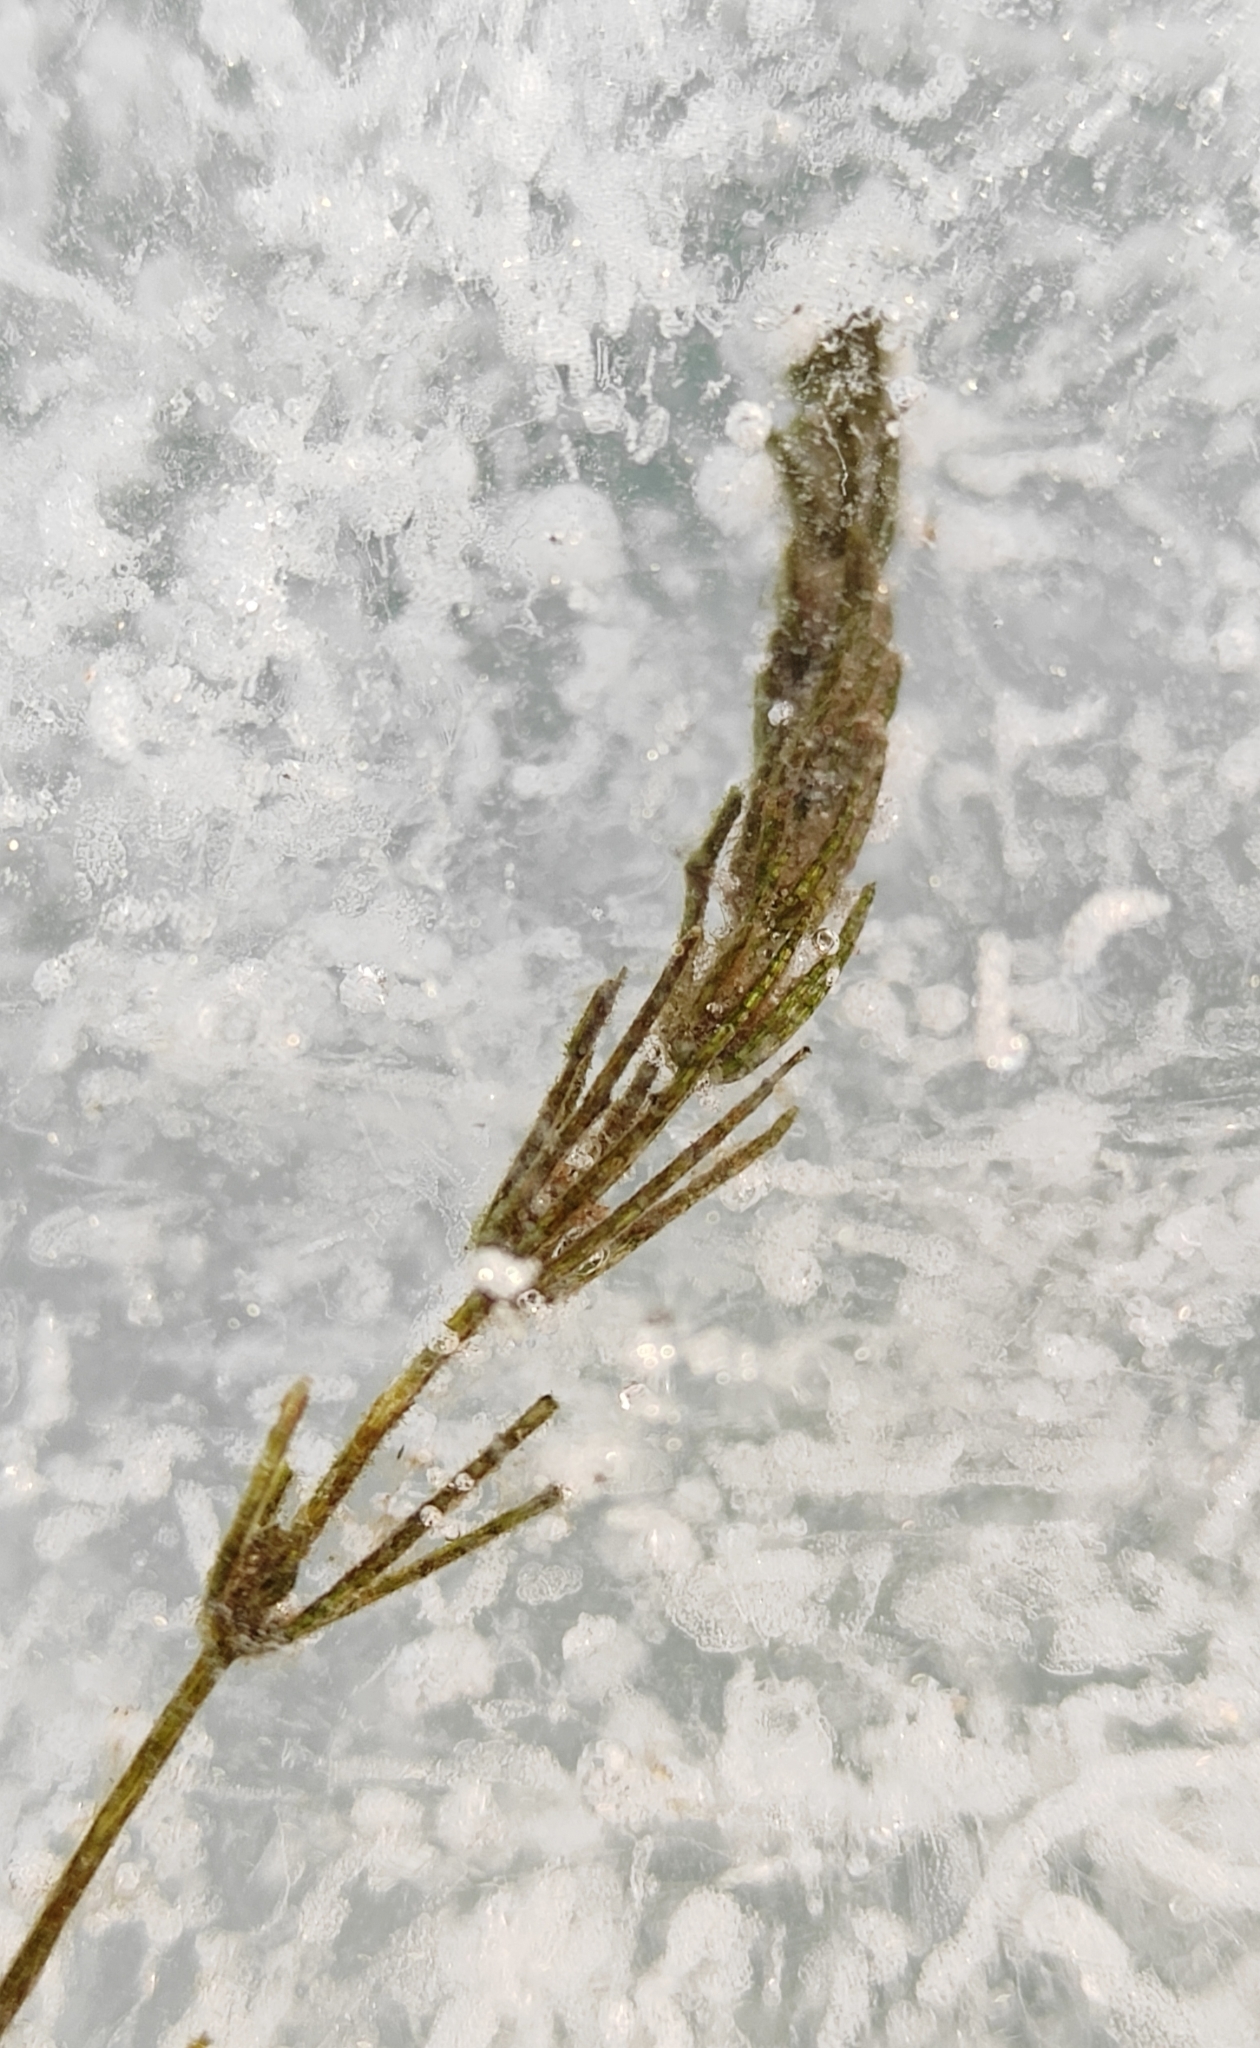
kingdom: Plantae
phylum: Charophyta
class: Charophyceae
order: Charales
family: Characeae
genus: Chara
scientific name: Chara globularis
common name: Fragile stonewort
